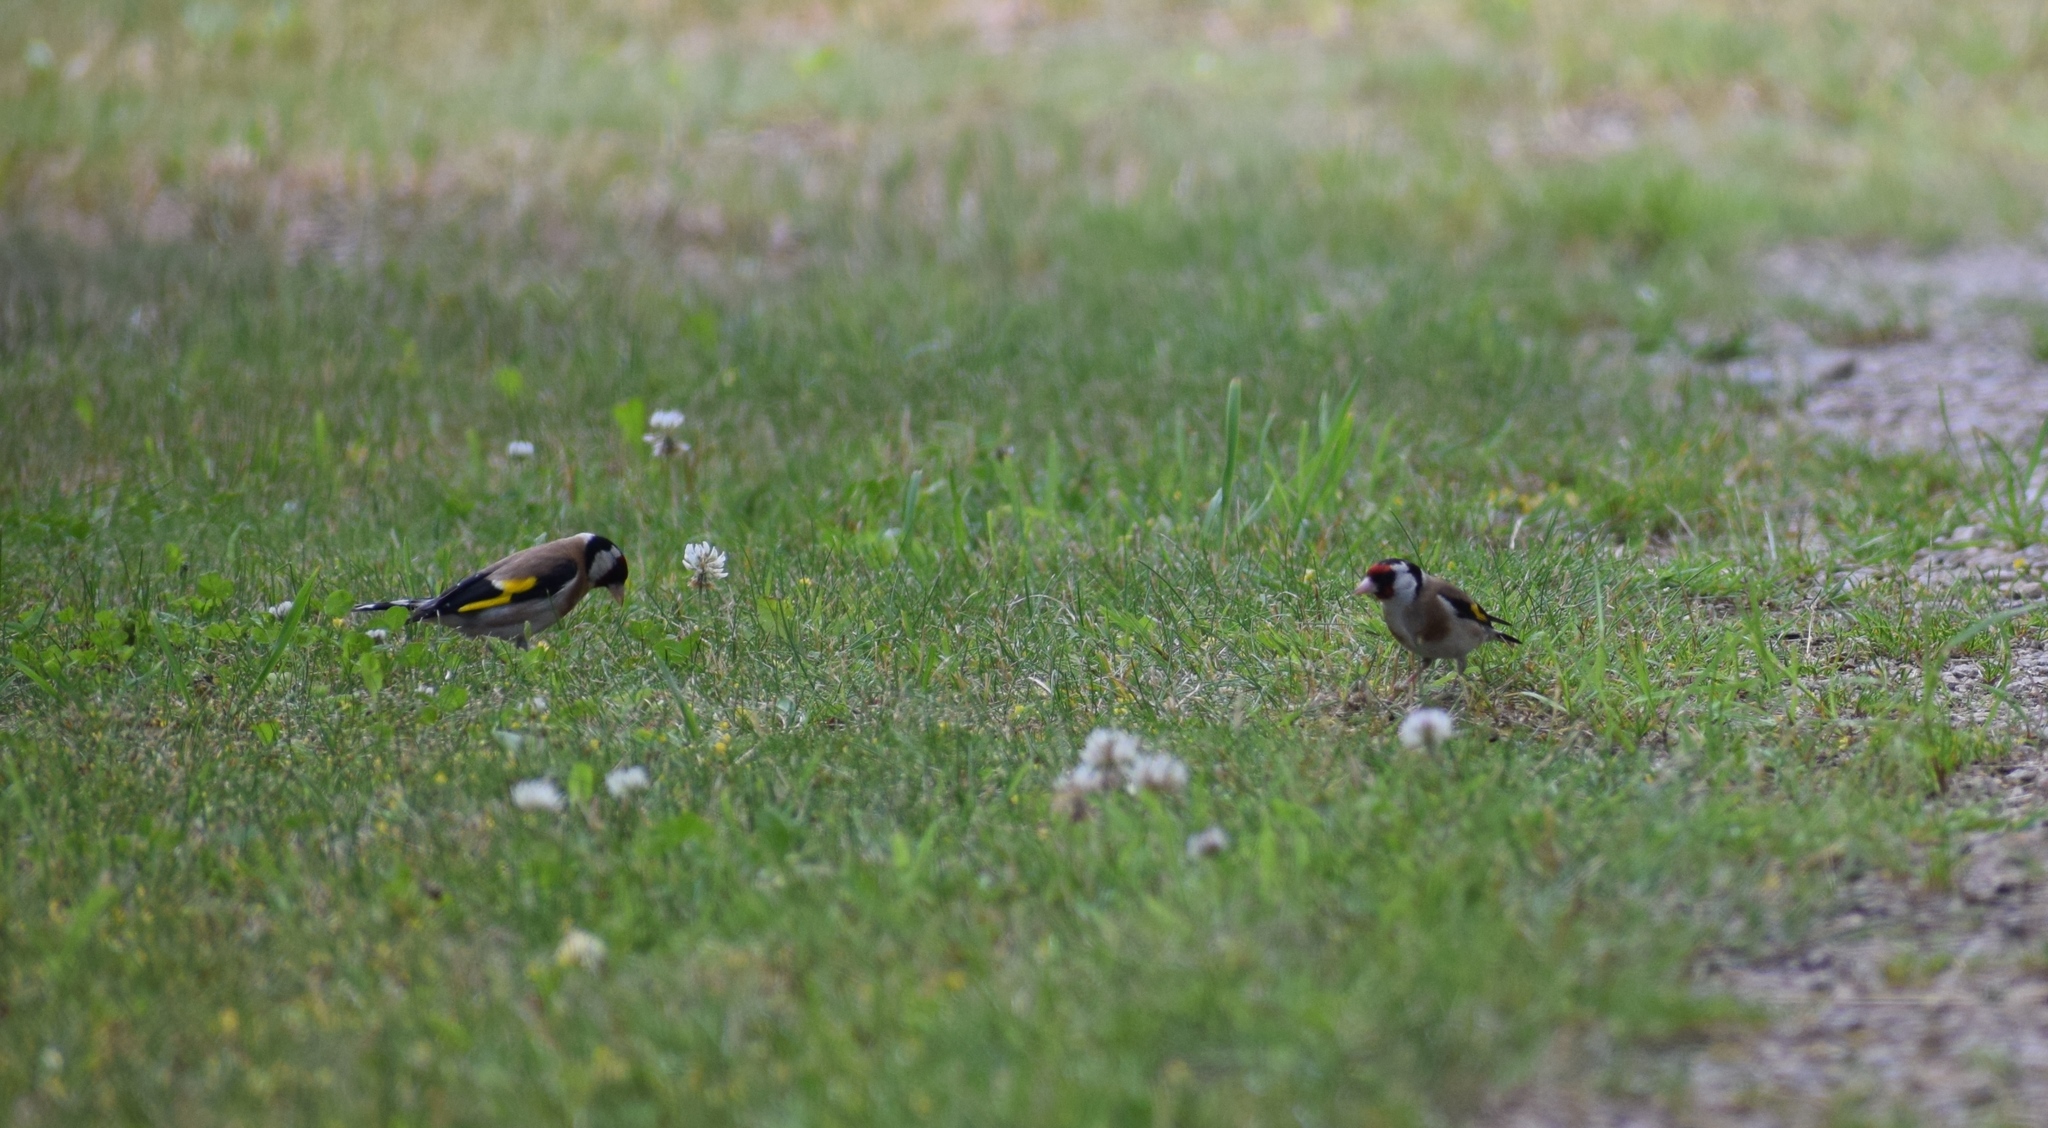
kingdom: Animalia
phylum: Chordata
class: Aves
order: Passeriformes
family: Fringillidae
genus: Carduelis
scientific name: Carduelis carduelis
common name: European goldfinch
